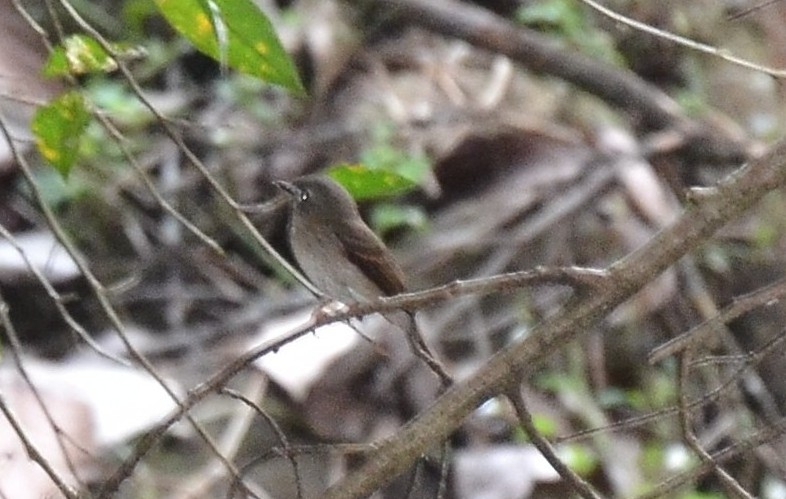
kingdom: Animalia
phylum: Chordata
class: Aves
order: Passeriformes
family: Muscicapidae
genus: Muscicapa
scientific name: Muscicapa muttui
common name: Brown-breasted flycatcher
